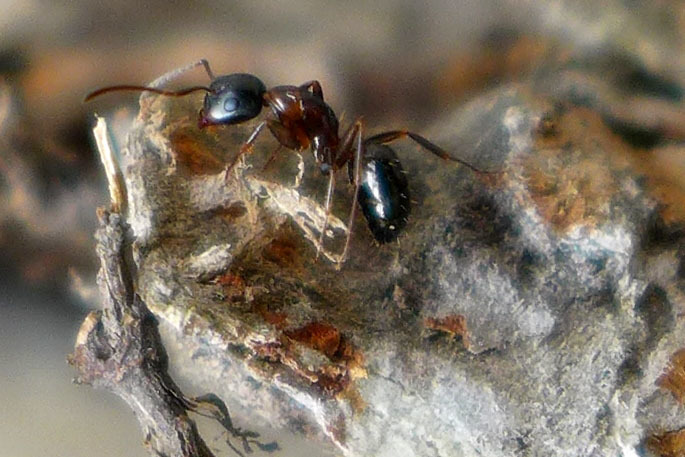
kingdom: Animalia
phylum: Arthropoda
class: Insecta
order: Hymenoptera
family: Formicidae
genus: Camponotus
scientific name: Camponotus nearcticus
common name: Smaller carpenter ant
